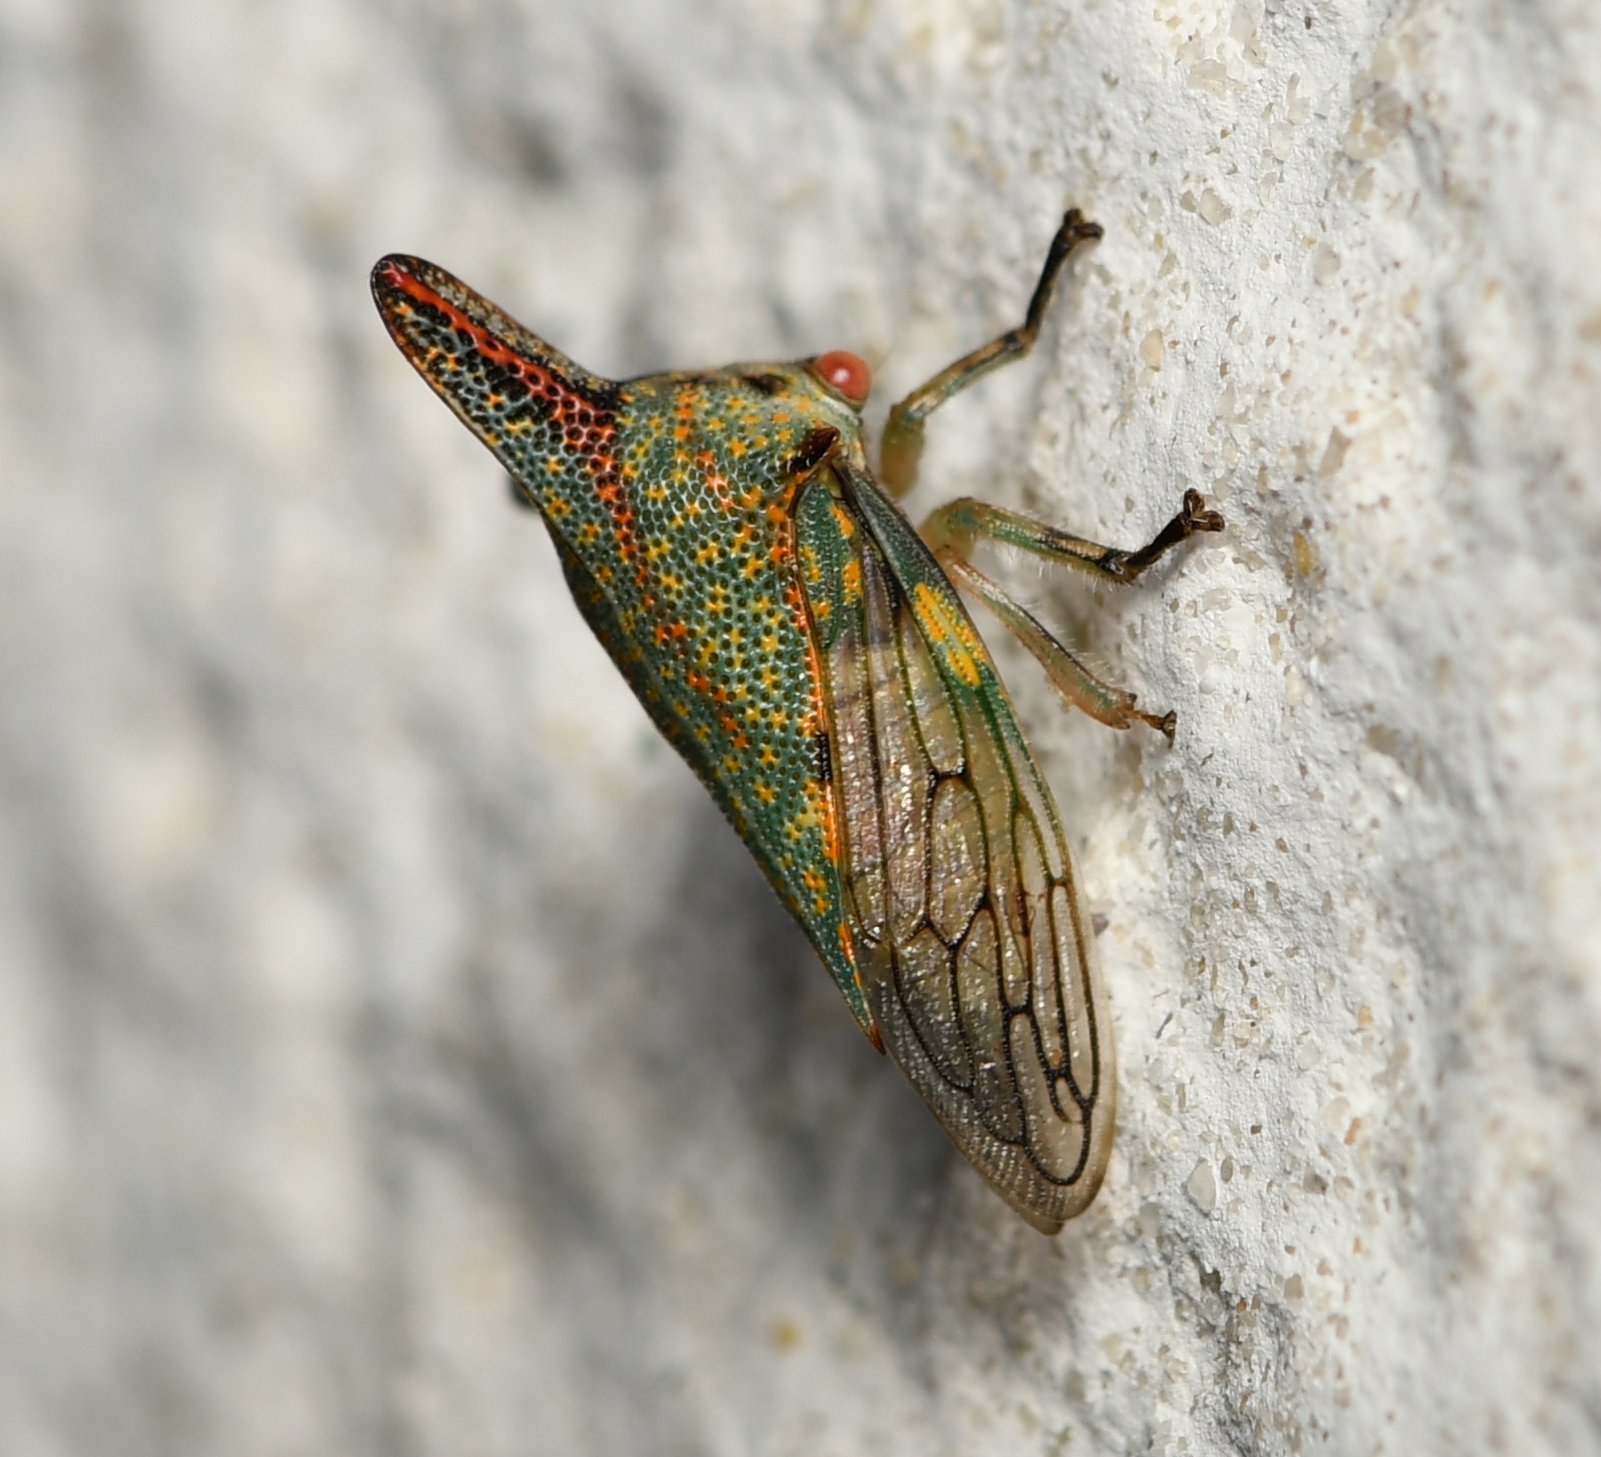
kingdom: Animalia
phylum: Arthropoda
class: Insecta
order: Hemiptera
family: Membracidae
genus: Platycotis
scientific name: Platycotis vittatus
